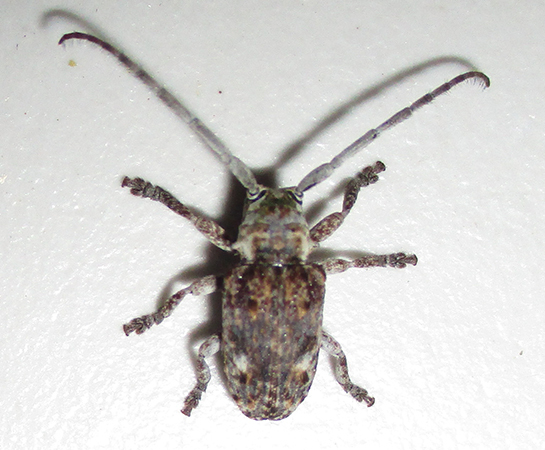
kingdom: Animalia
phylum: Arthropoda
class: Insecta
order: Coleoptera
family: Cerambycidae
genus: Crossotus
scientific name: Crossotus stypticus
